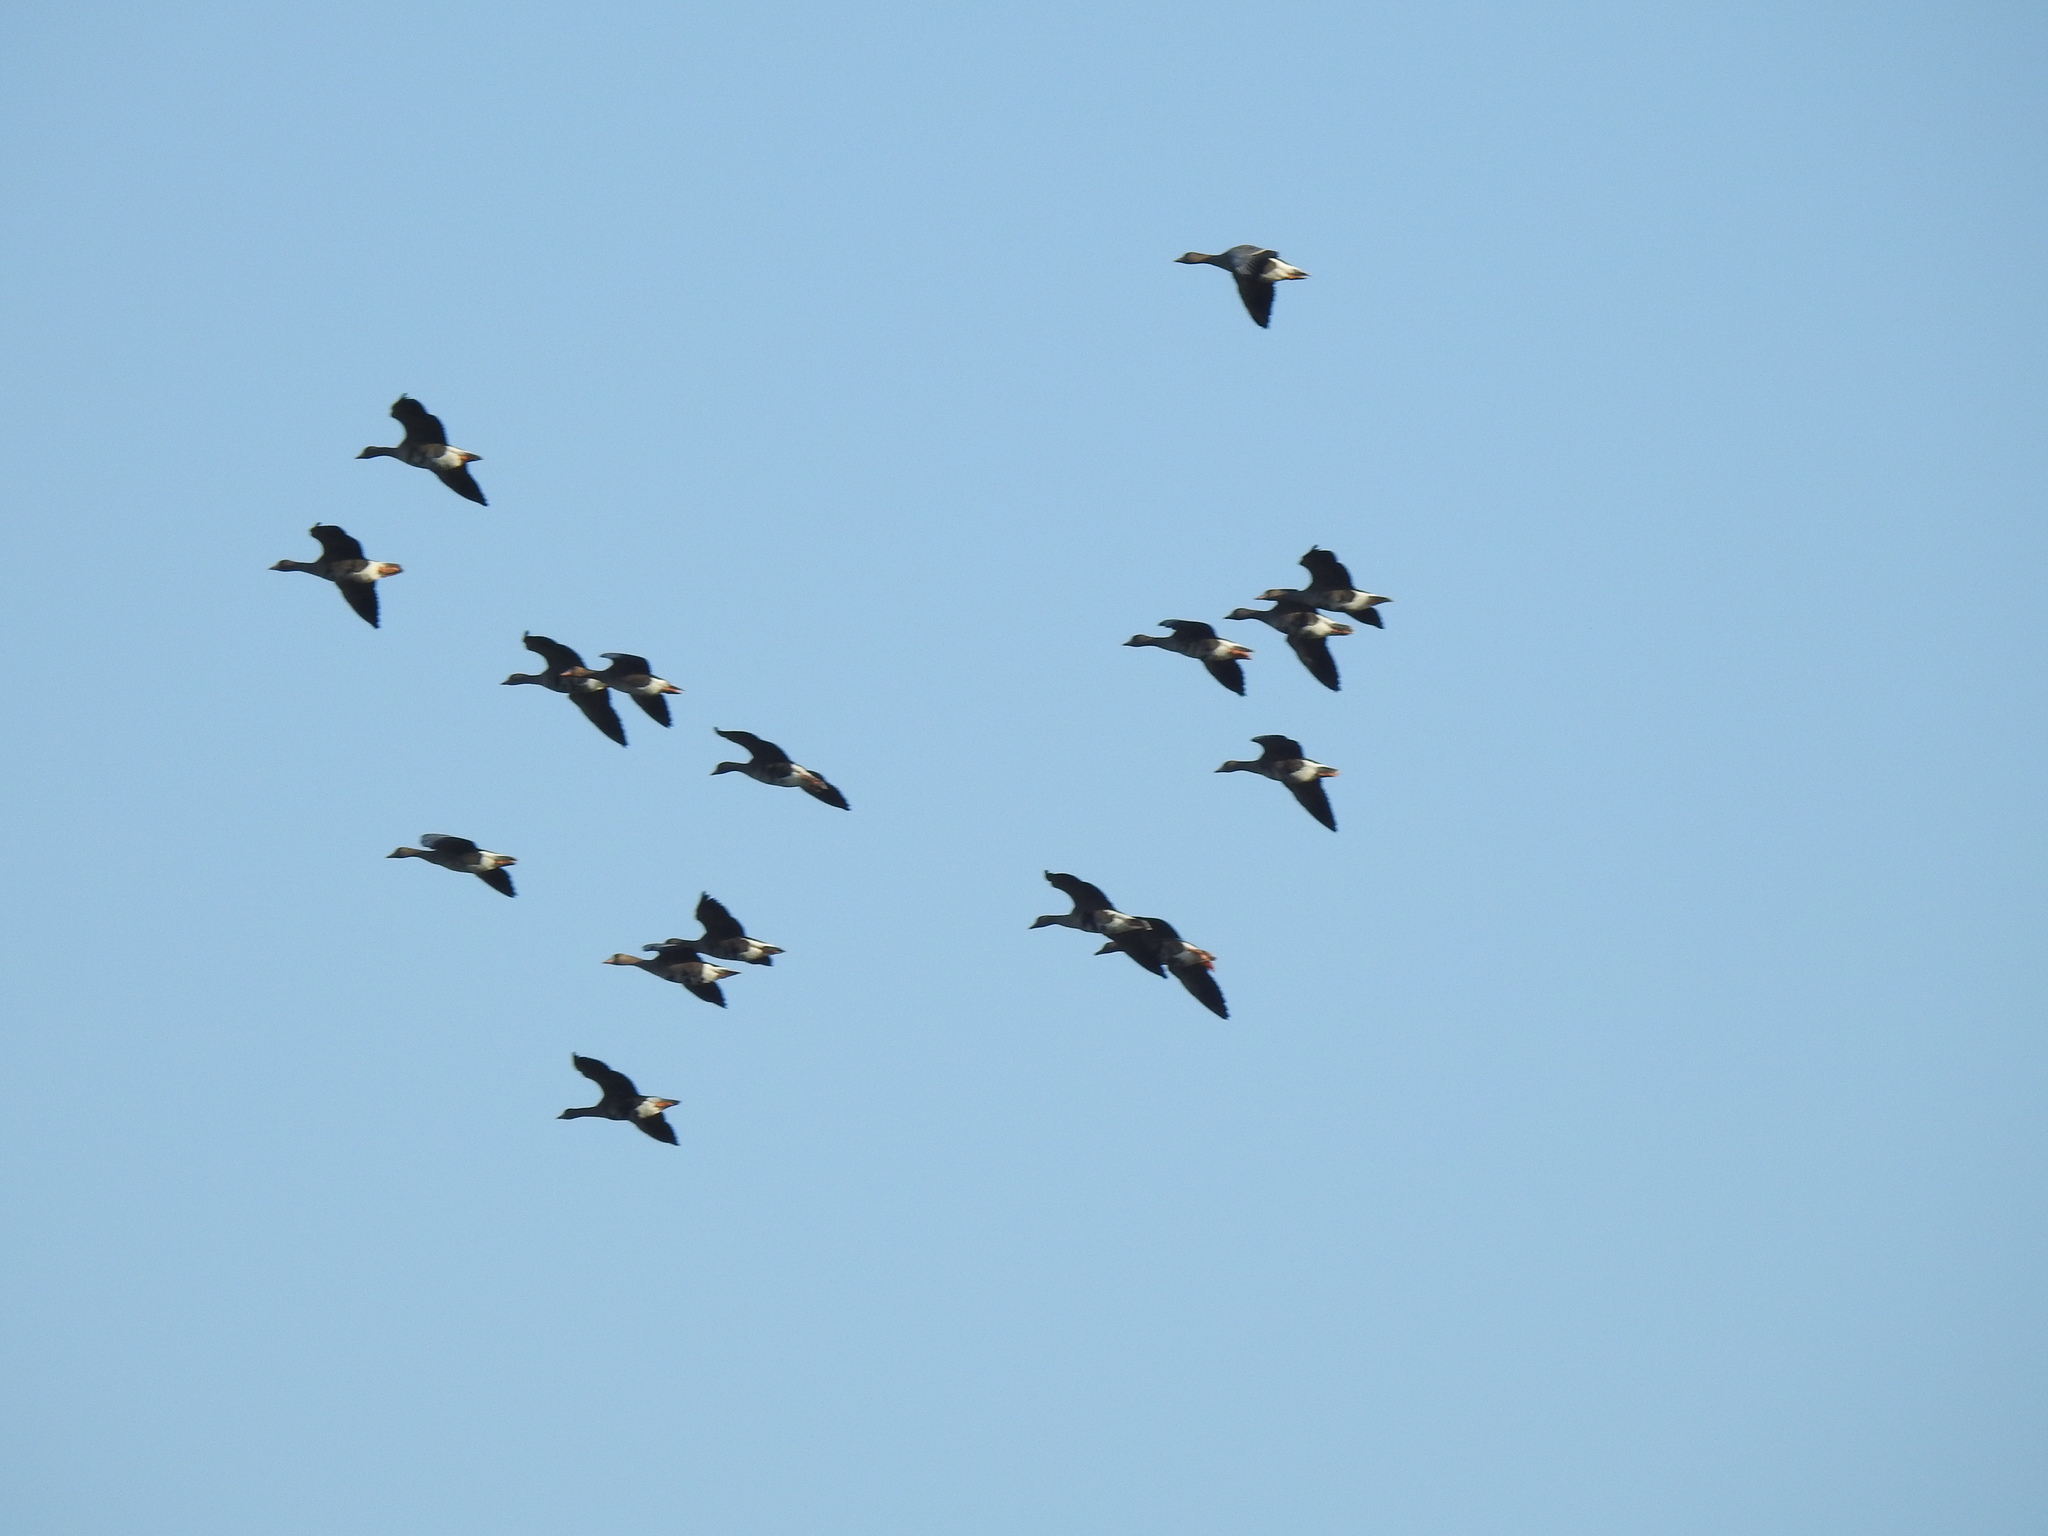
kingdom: Animalia
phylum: Chordata
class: Aves
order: Anseriformes
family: Anatidae
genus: Anser
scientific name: Anser albifrons
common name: Greater white-fronted goose
